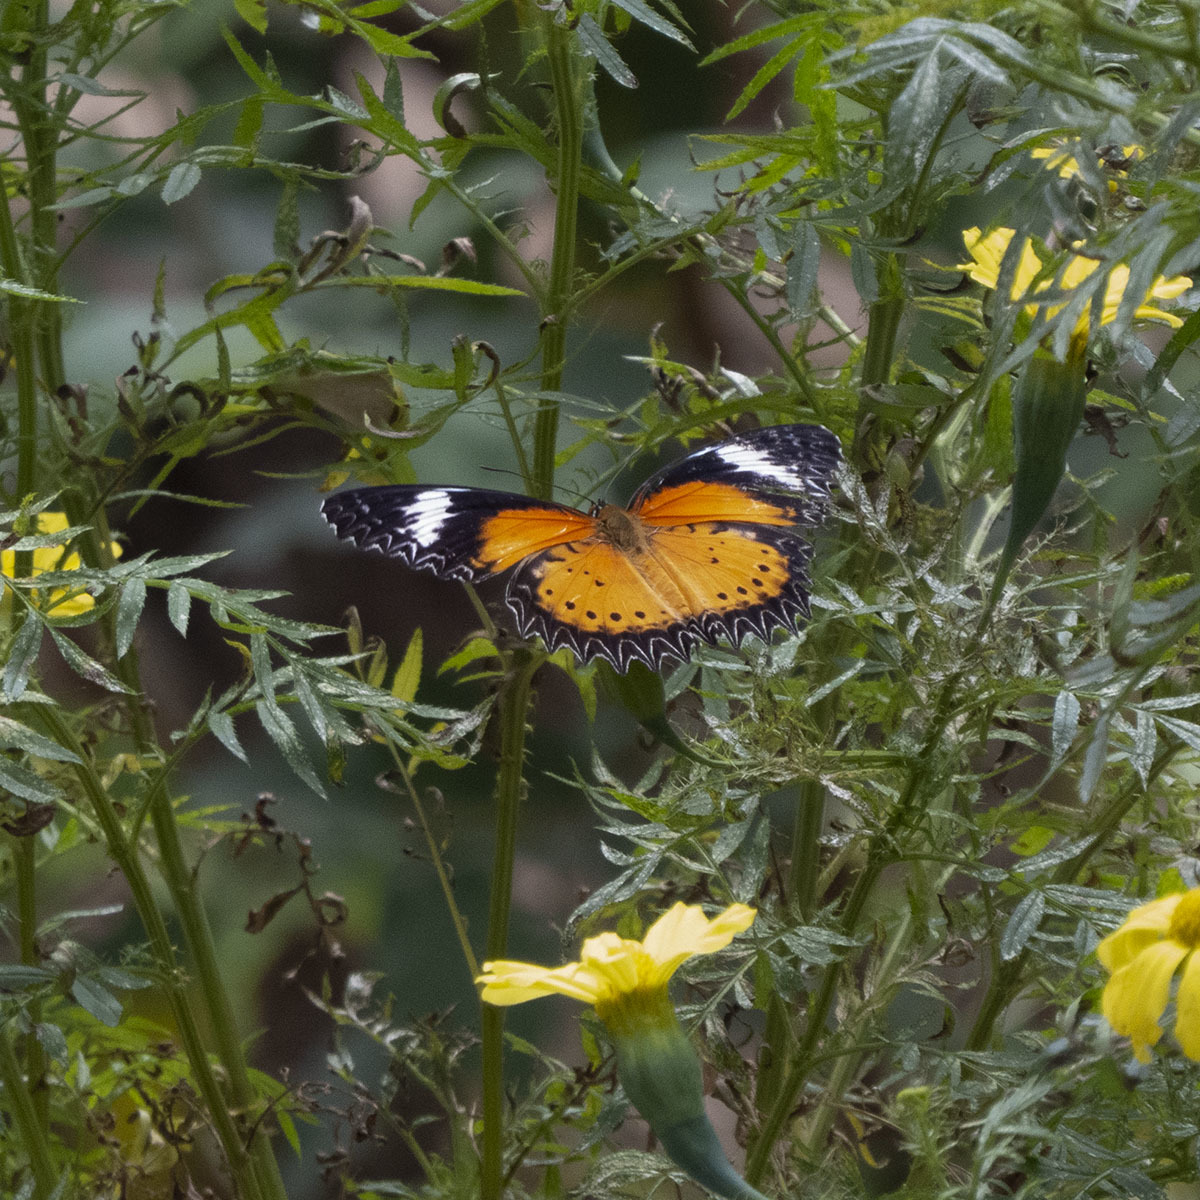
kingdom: Animalia
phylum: Arthropoda
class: Insecta
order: Lepidoptera
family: Nymphalidae
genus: Cethosia
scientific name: Cethosia cyane
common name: Leopard lacewing butterfly
